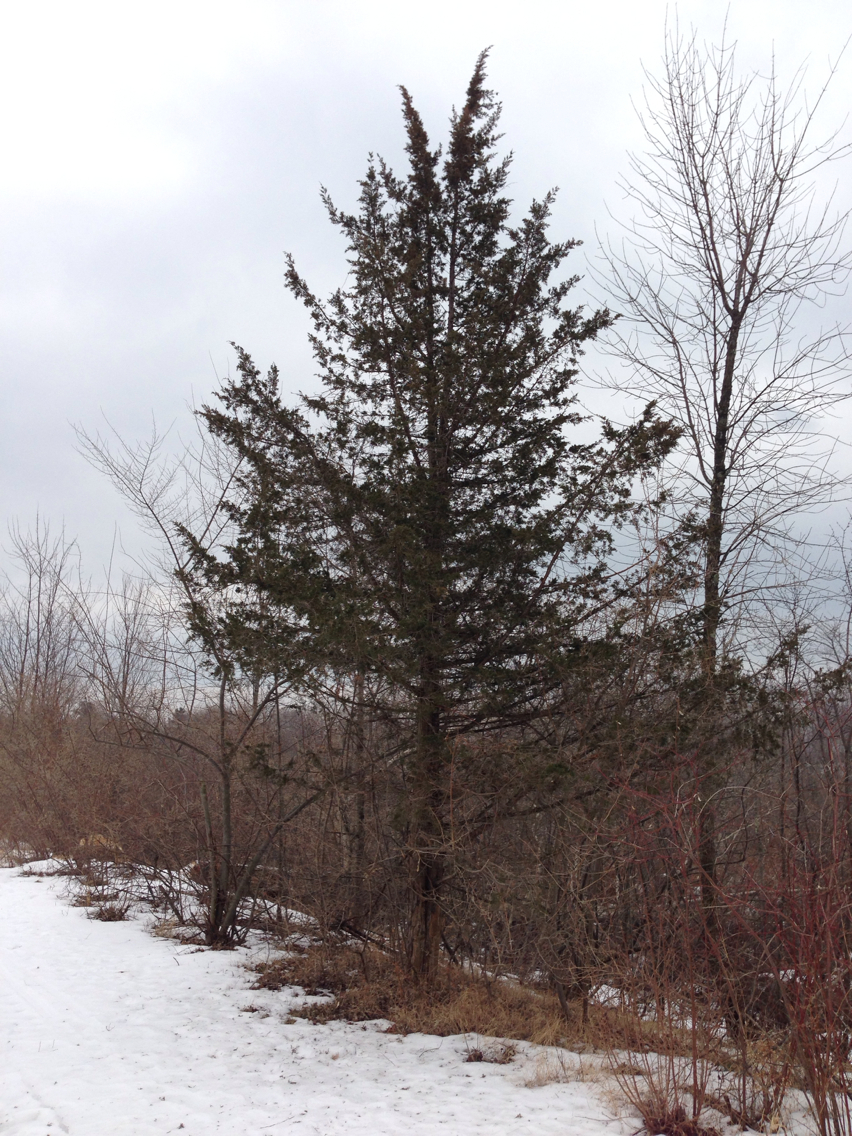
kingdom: Plantae
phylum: Tracheophyta
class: Pinopsida
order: Pinales
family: Cupressaceae
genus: Juniperus
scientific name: Juniperus virginiana
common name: Red juniper
